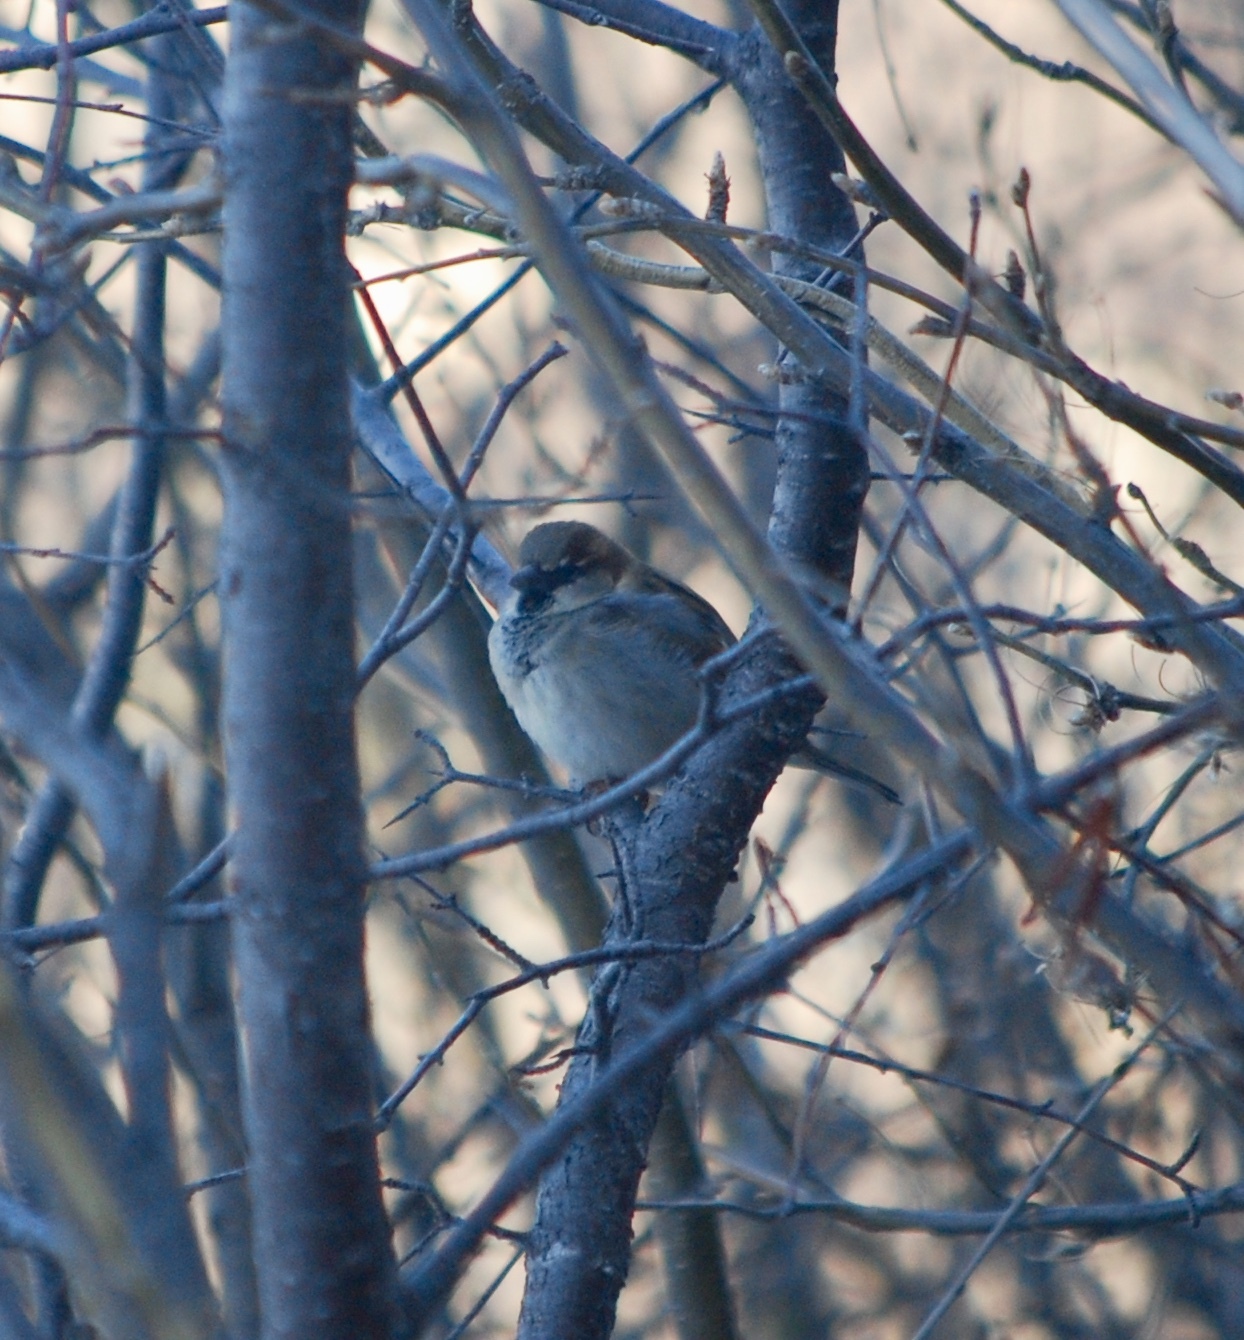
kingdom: Animalia
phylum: Chordata
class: Aves
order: Passeriformes
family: Passeridae
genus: Passer
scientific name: Passer domesticus
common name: House sparrow
